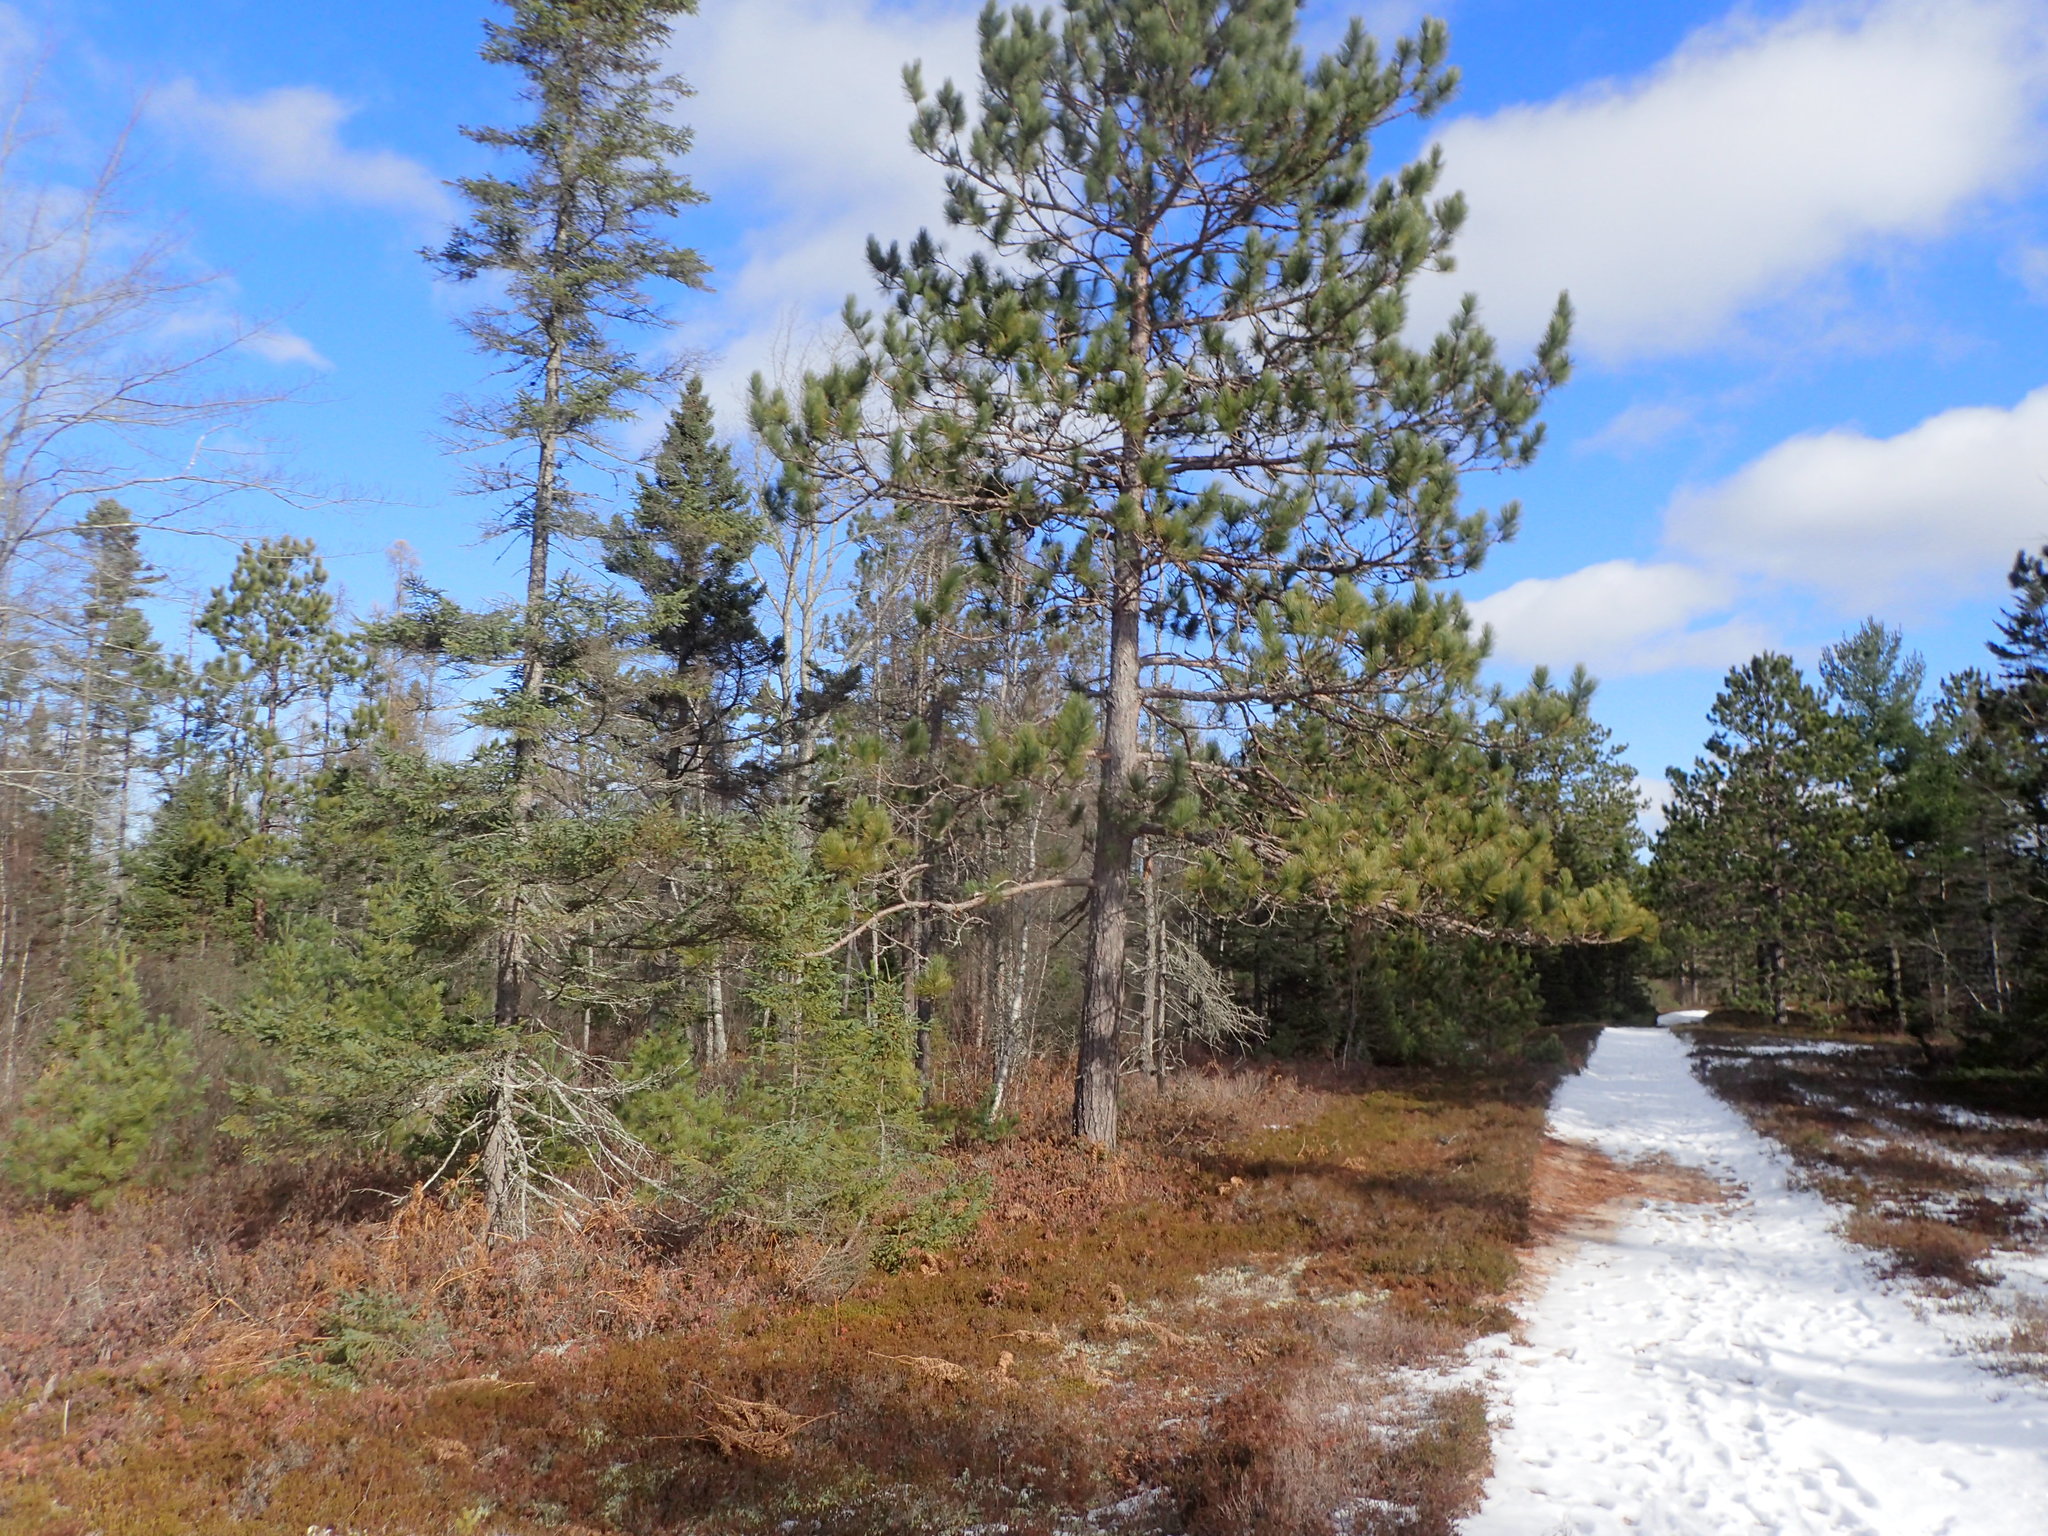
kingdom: Plantae
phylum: Tracheophyta
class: Pinopsida
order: Pinales
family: Pinaceae
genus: Pinus
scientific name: Pinus resinosa
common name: Norway pine
